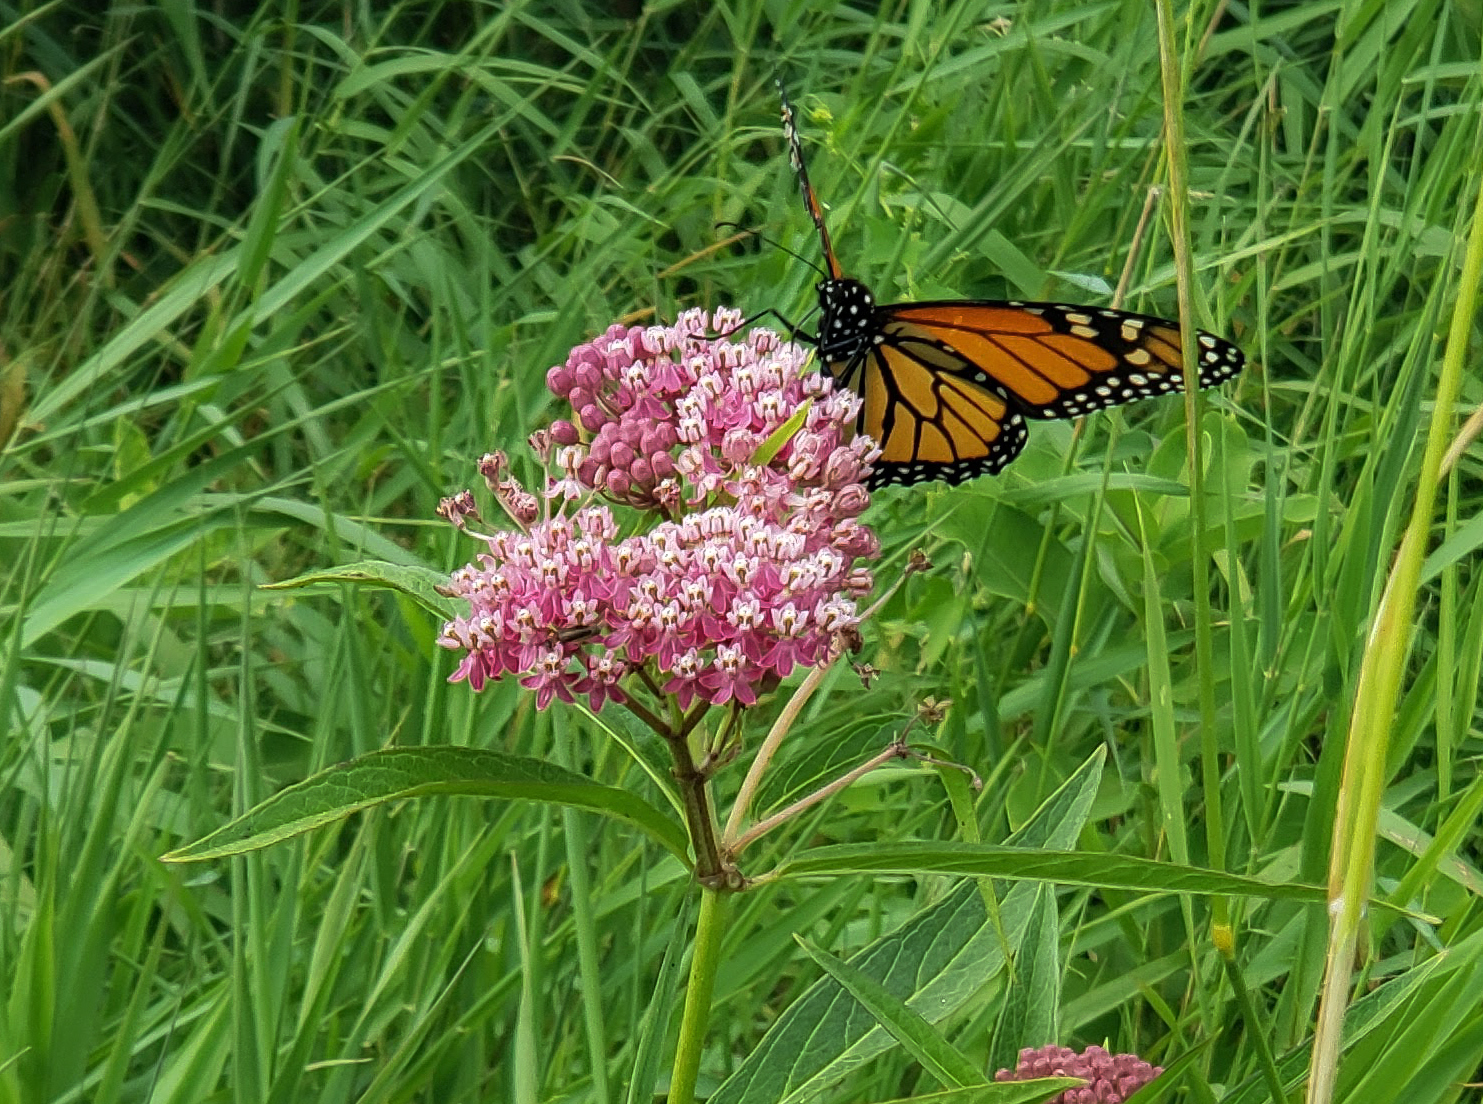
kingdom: Animalia
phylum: Arthropoda
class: Insecta
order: Lepidoptera
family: Nymphalidae
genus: Danaus
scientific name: Danaus plexippus
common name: Monarch
